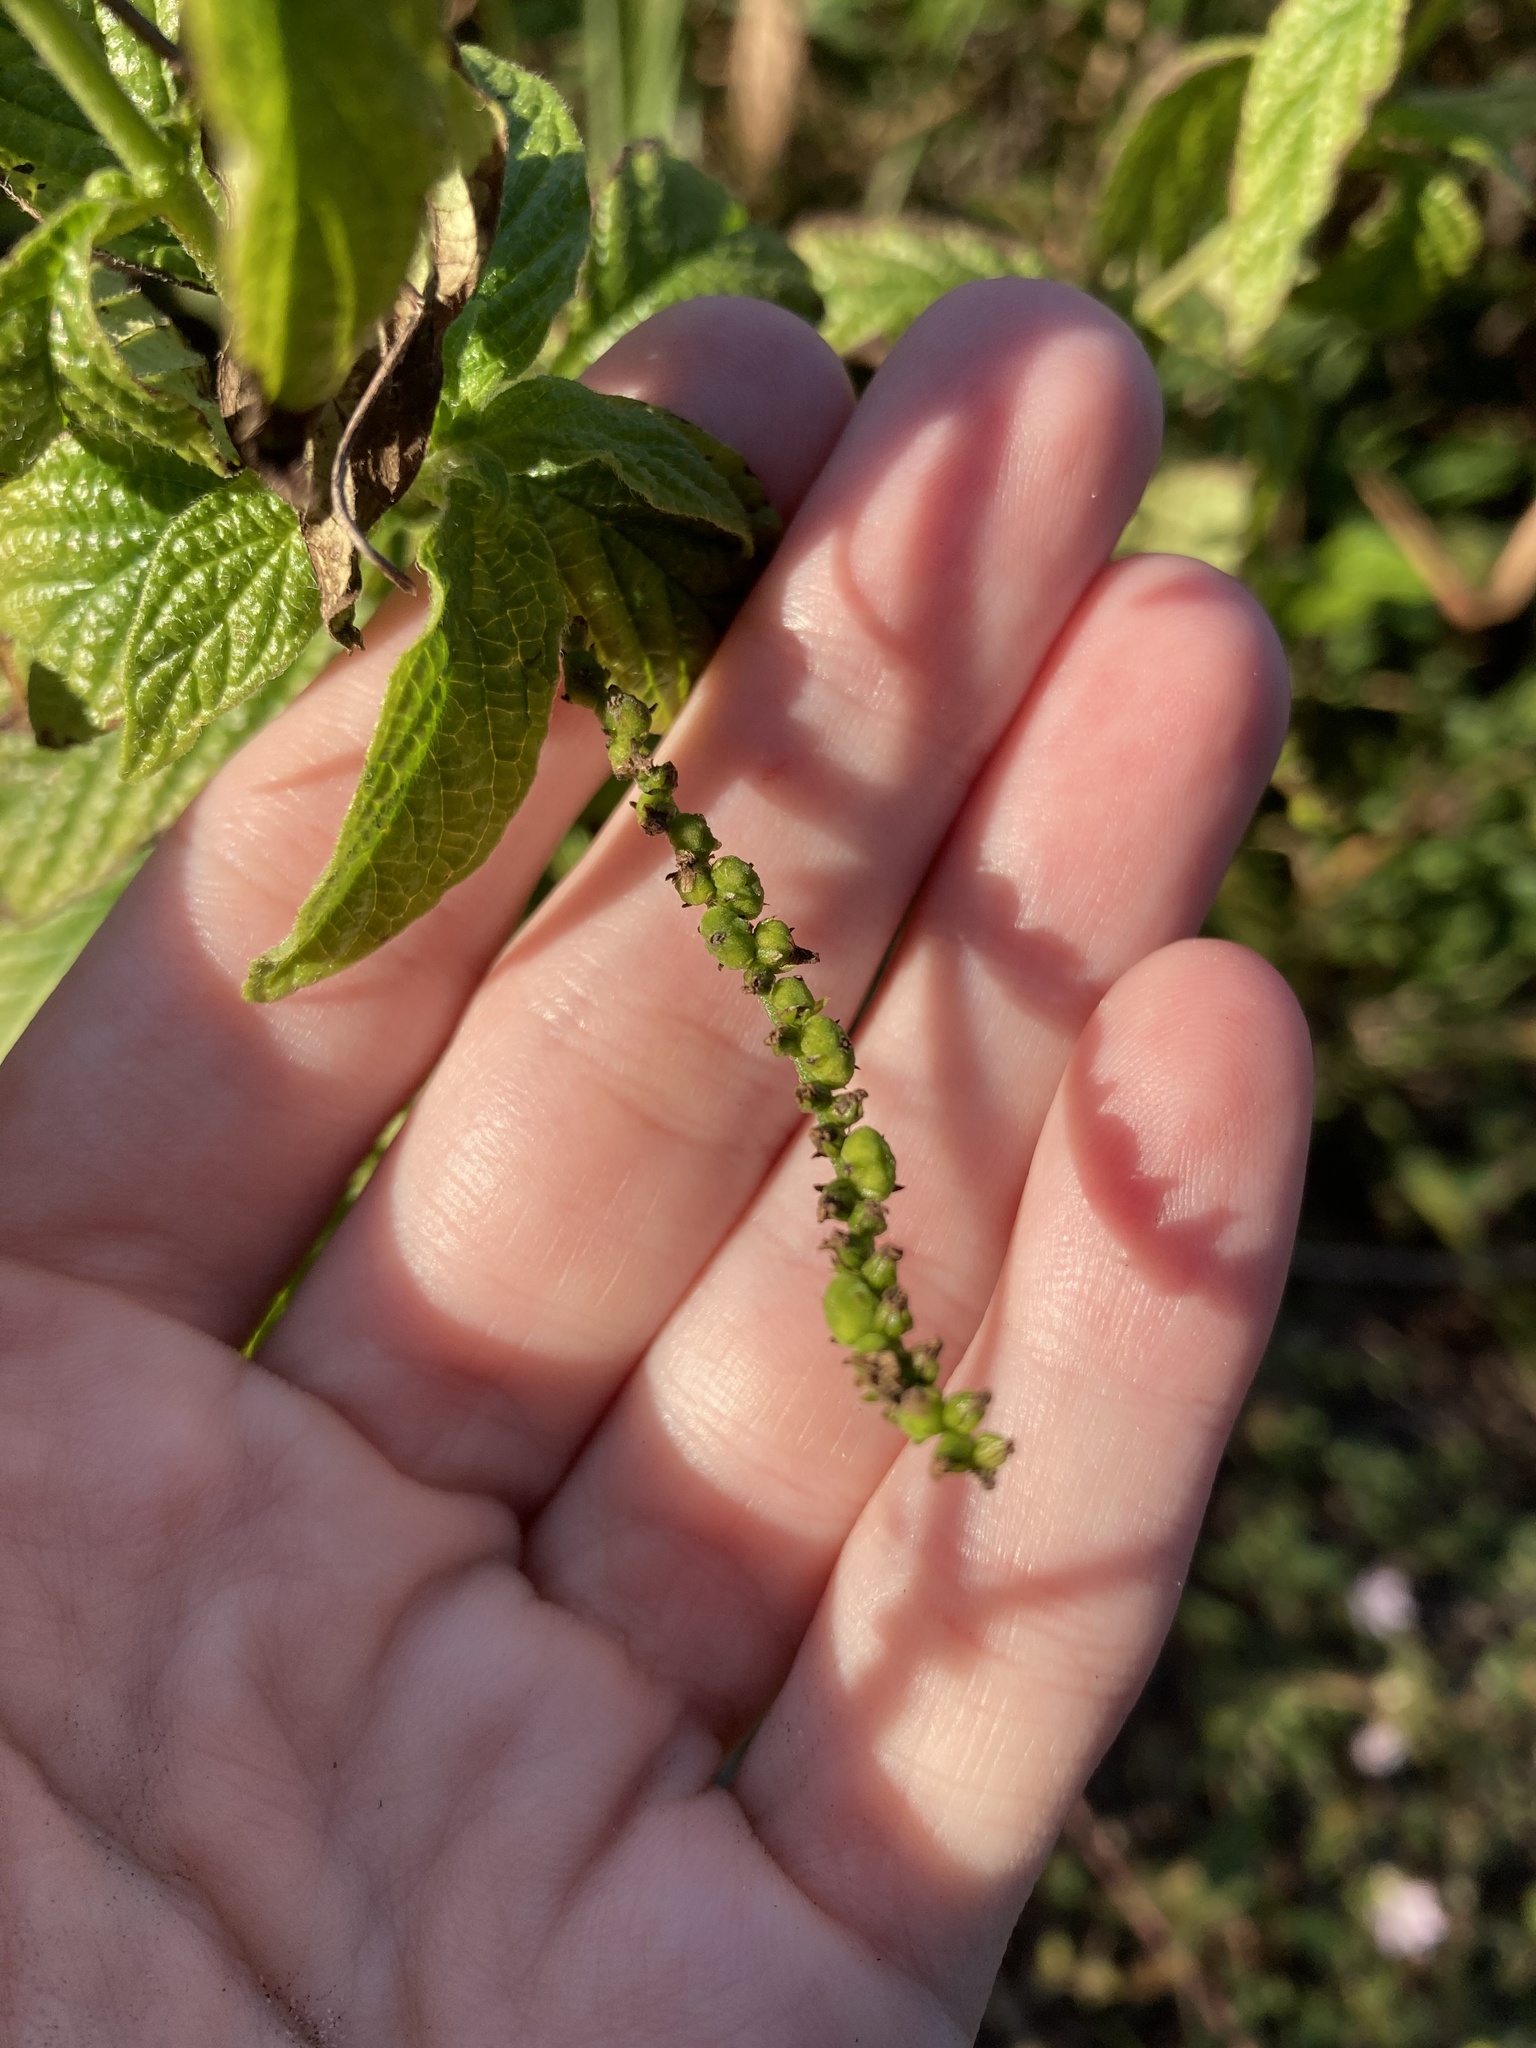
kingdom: Plantae
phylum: Tracheophyta
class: Magnoliopsida
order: Boraginales
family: Heliotropiaceae
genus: Heliotropium
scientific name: Heliotropium angiospermum
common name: Eye bright
